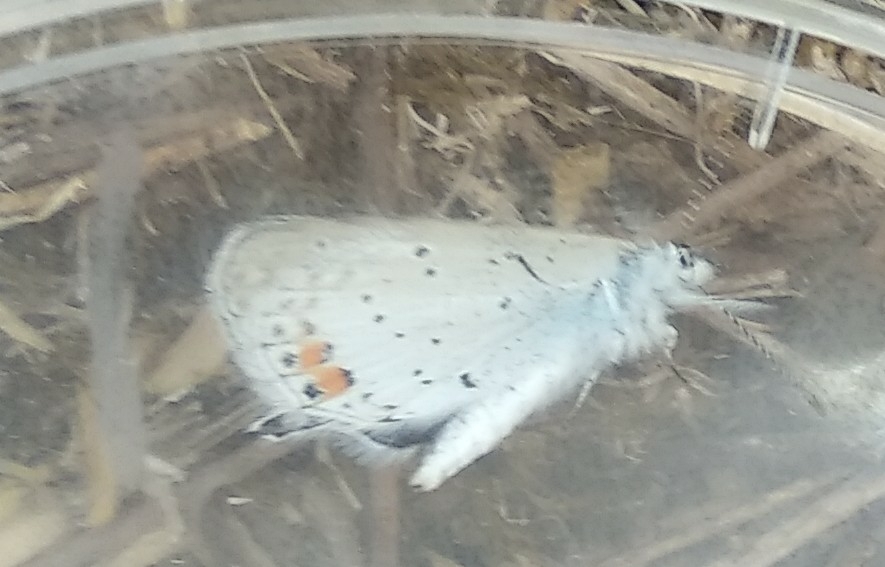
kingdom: Animalia
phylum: Arthropoda
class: Insecta
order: Lepidoptera
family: Lycaenidae
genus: Elkalyce
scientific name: Elkalyce argiades
